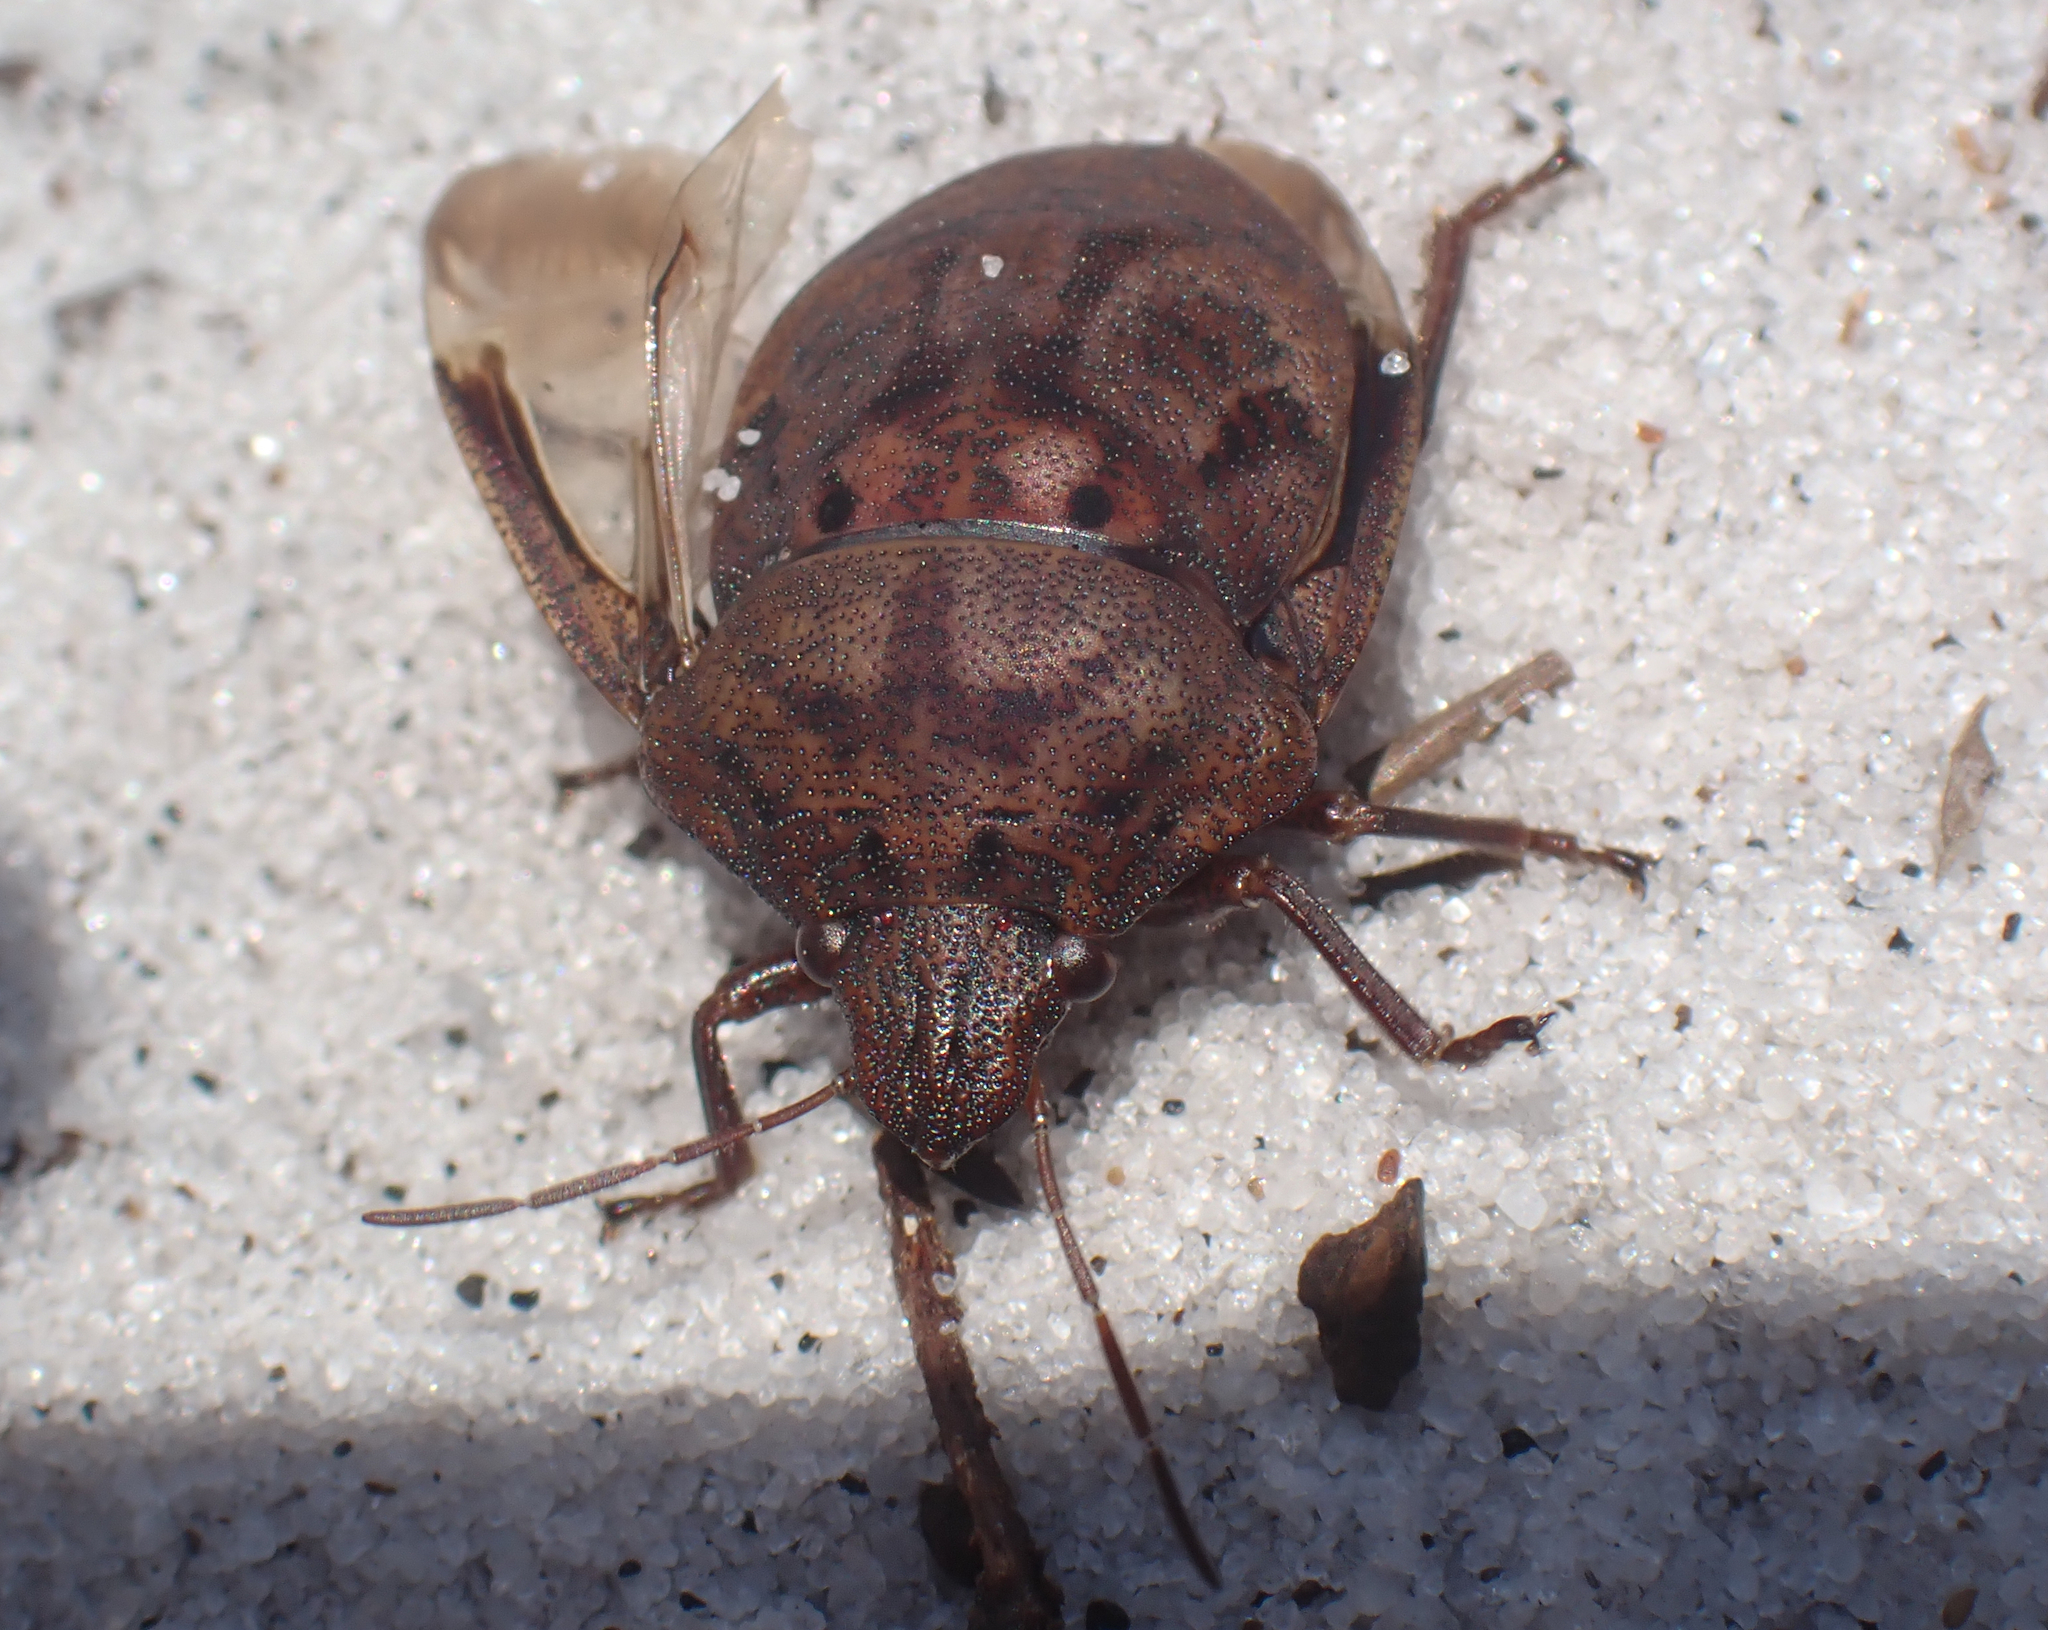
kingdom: Animalia
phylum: Arthropoda
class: Insecta
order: Hemiptera
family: Scutelleridae
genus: Tetyra
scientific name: Tetyra bipunctata
